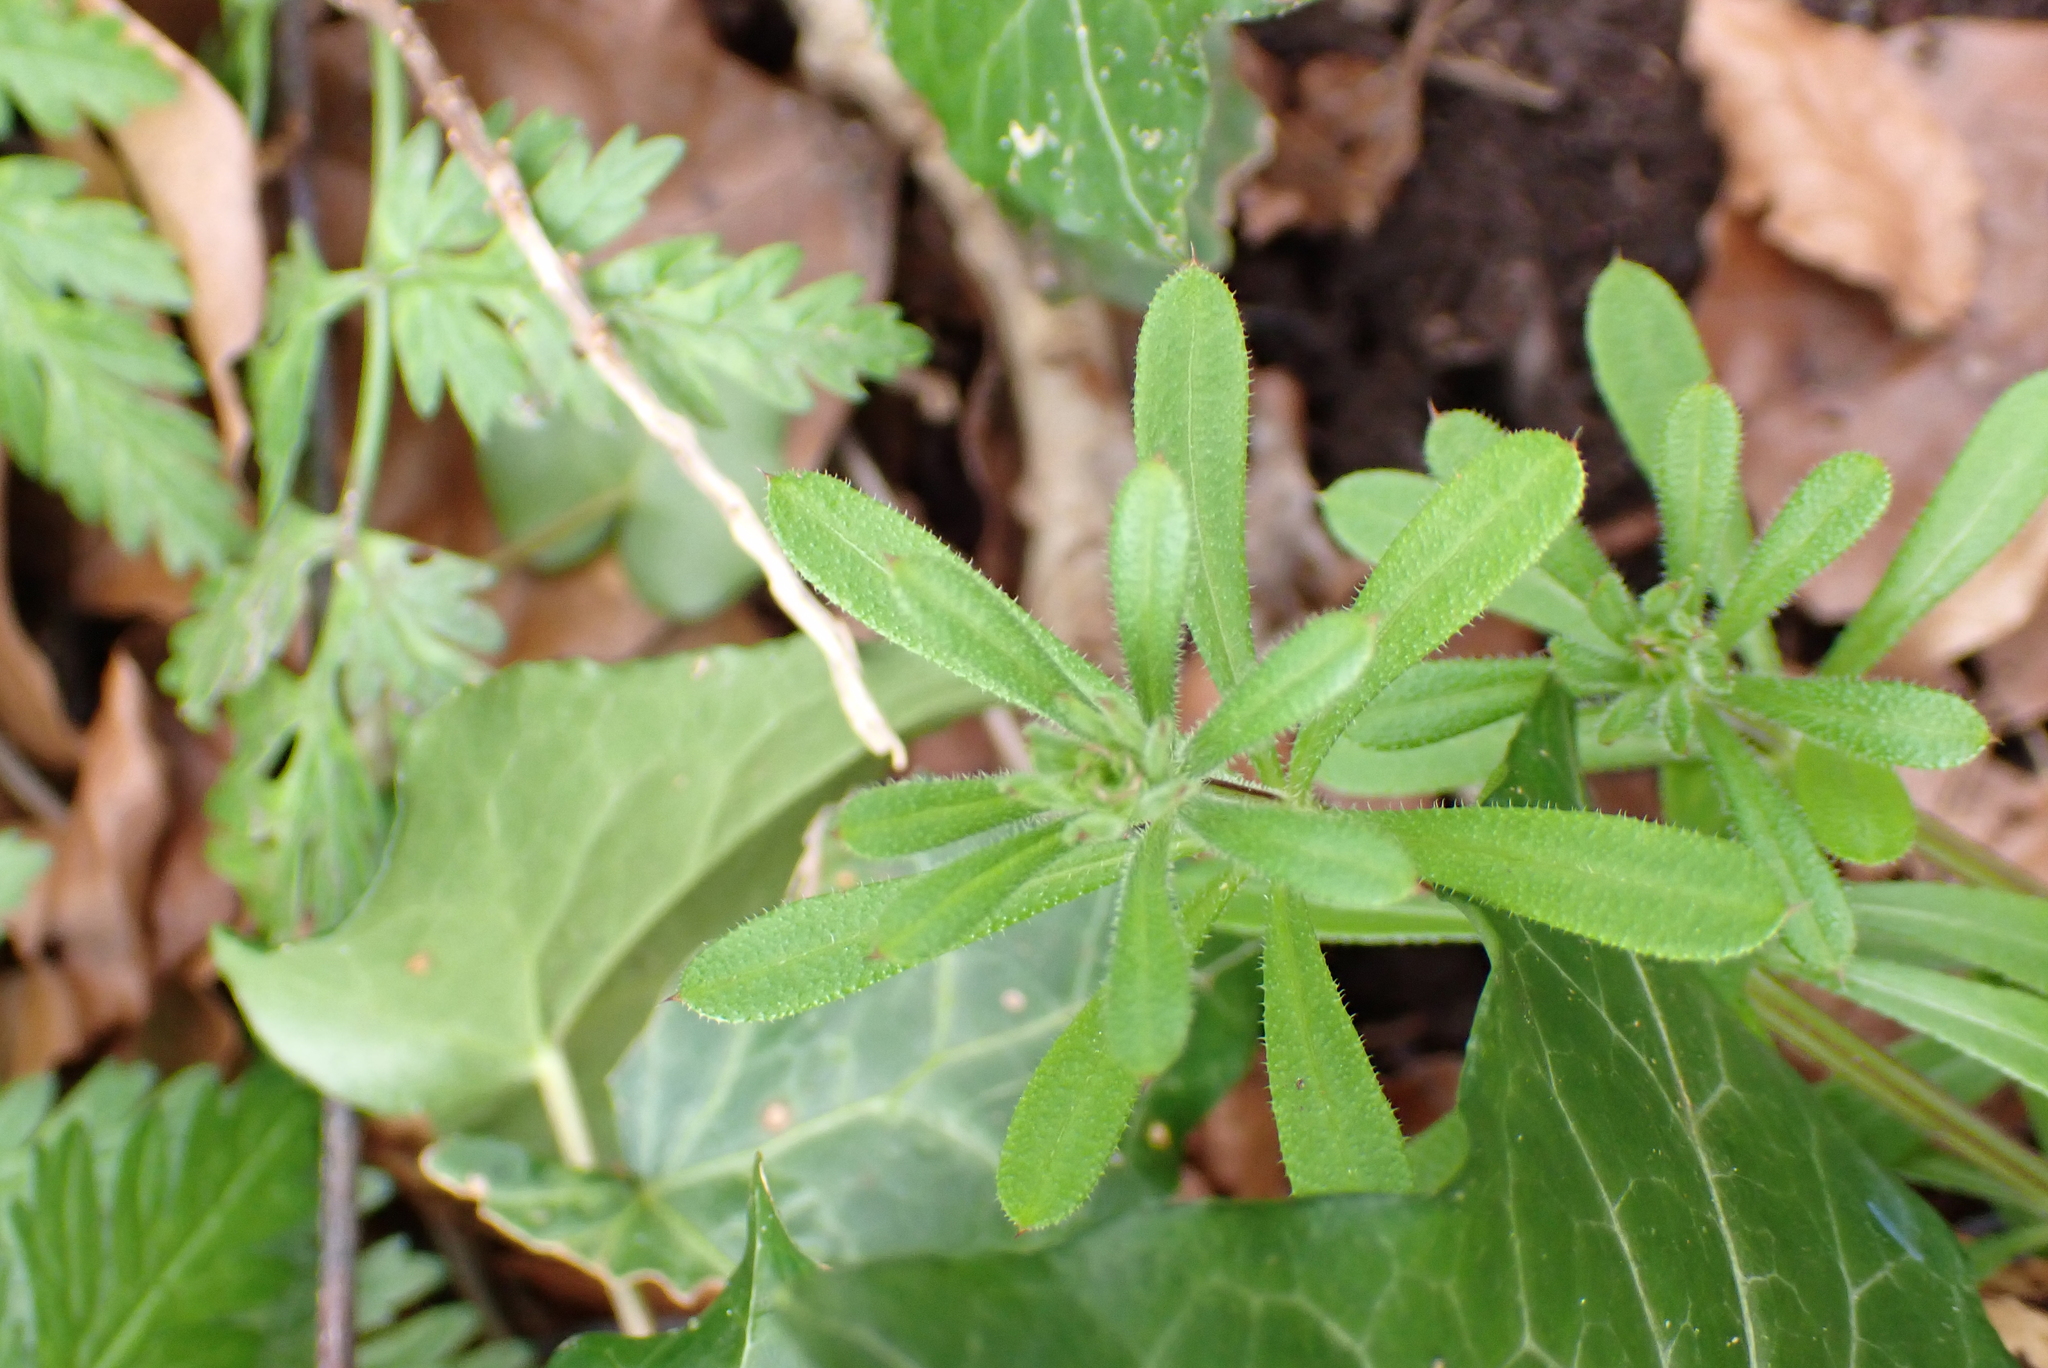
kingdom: Plantae
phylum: Tracheophyta
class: Magnoliopsida
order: Gentianales
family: Rubiaceae
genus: Galium
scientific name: Galium aparine
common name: Cleavers
